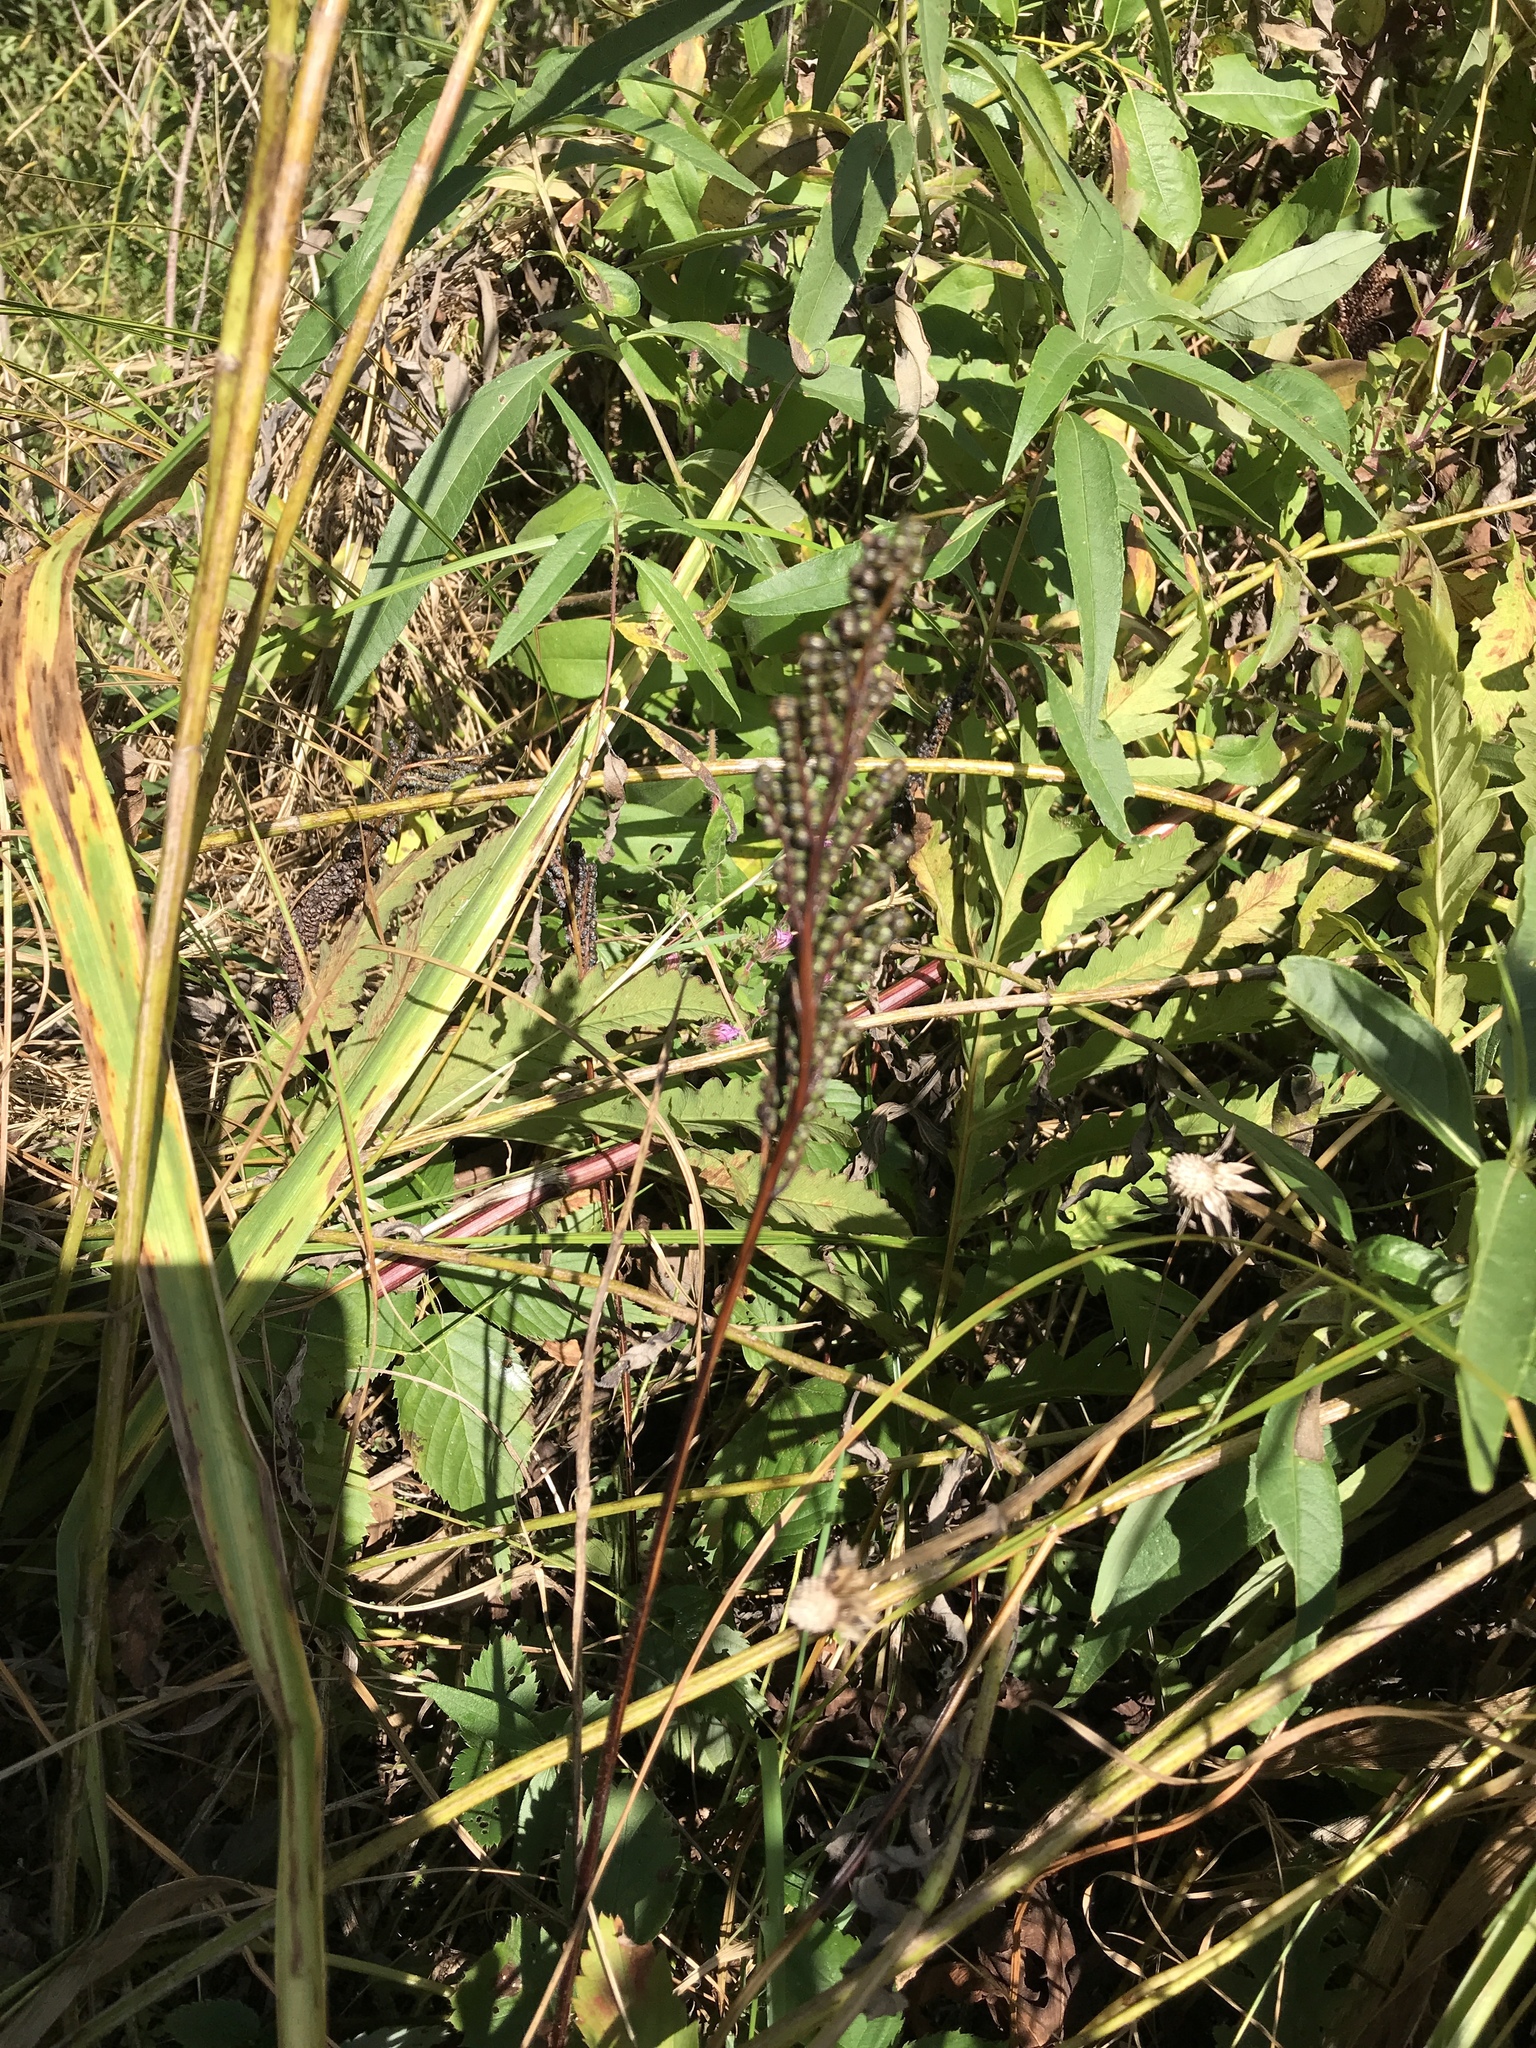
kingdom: Plantae
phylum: Tracheophyta
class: Polypodiopsida
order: Polypodiales
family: Onocleaceae
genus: Onoclea
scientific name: Onoclea sensibilis
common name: Sensitive fern
